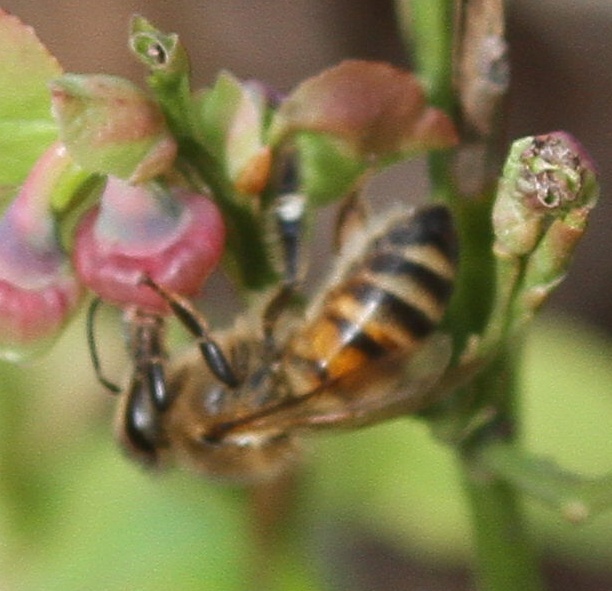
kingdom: Animalia
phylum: Arthropoda
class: Insecta
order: Hymenoptera
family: Apidae
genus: Apis
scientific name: Apis mellifera
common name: Honey bee
